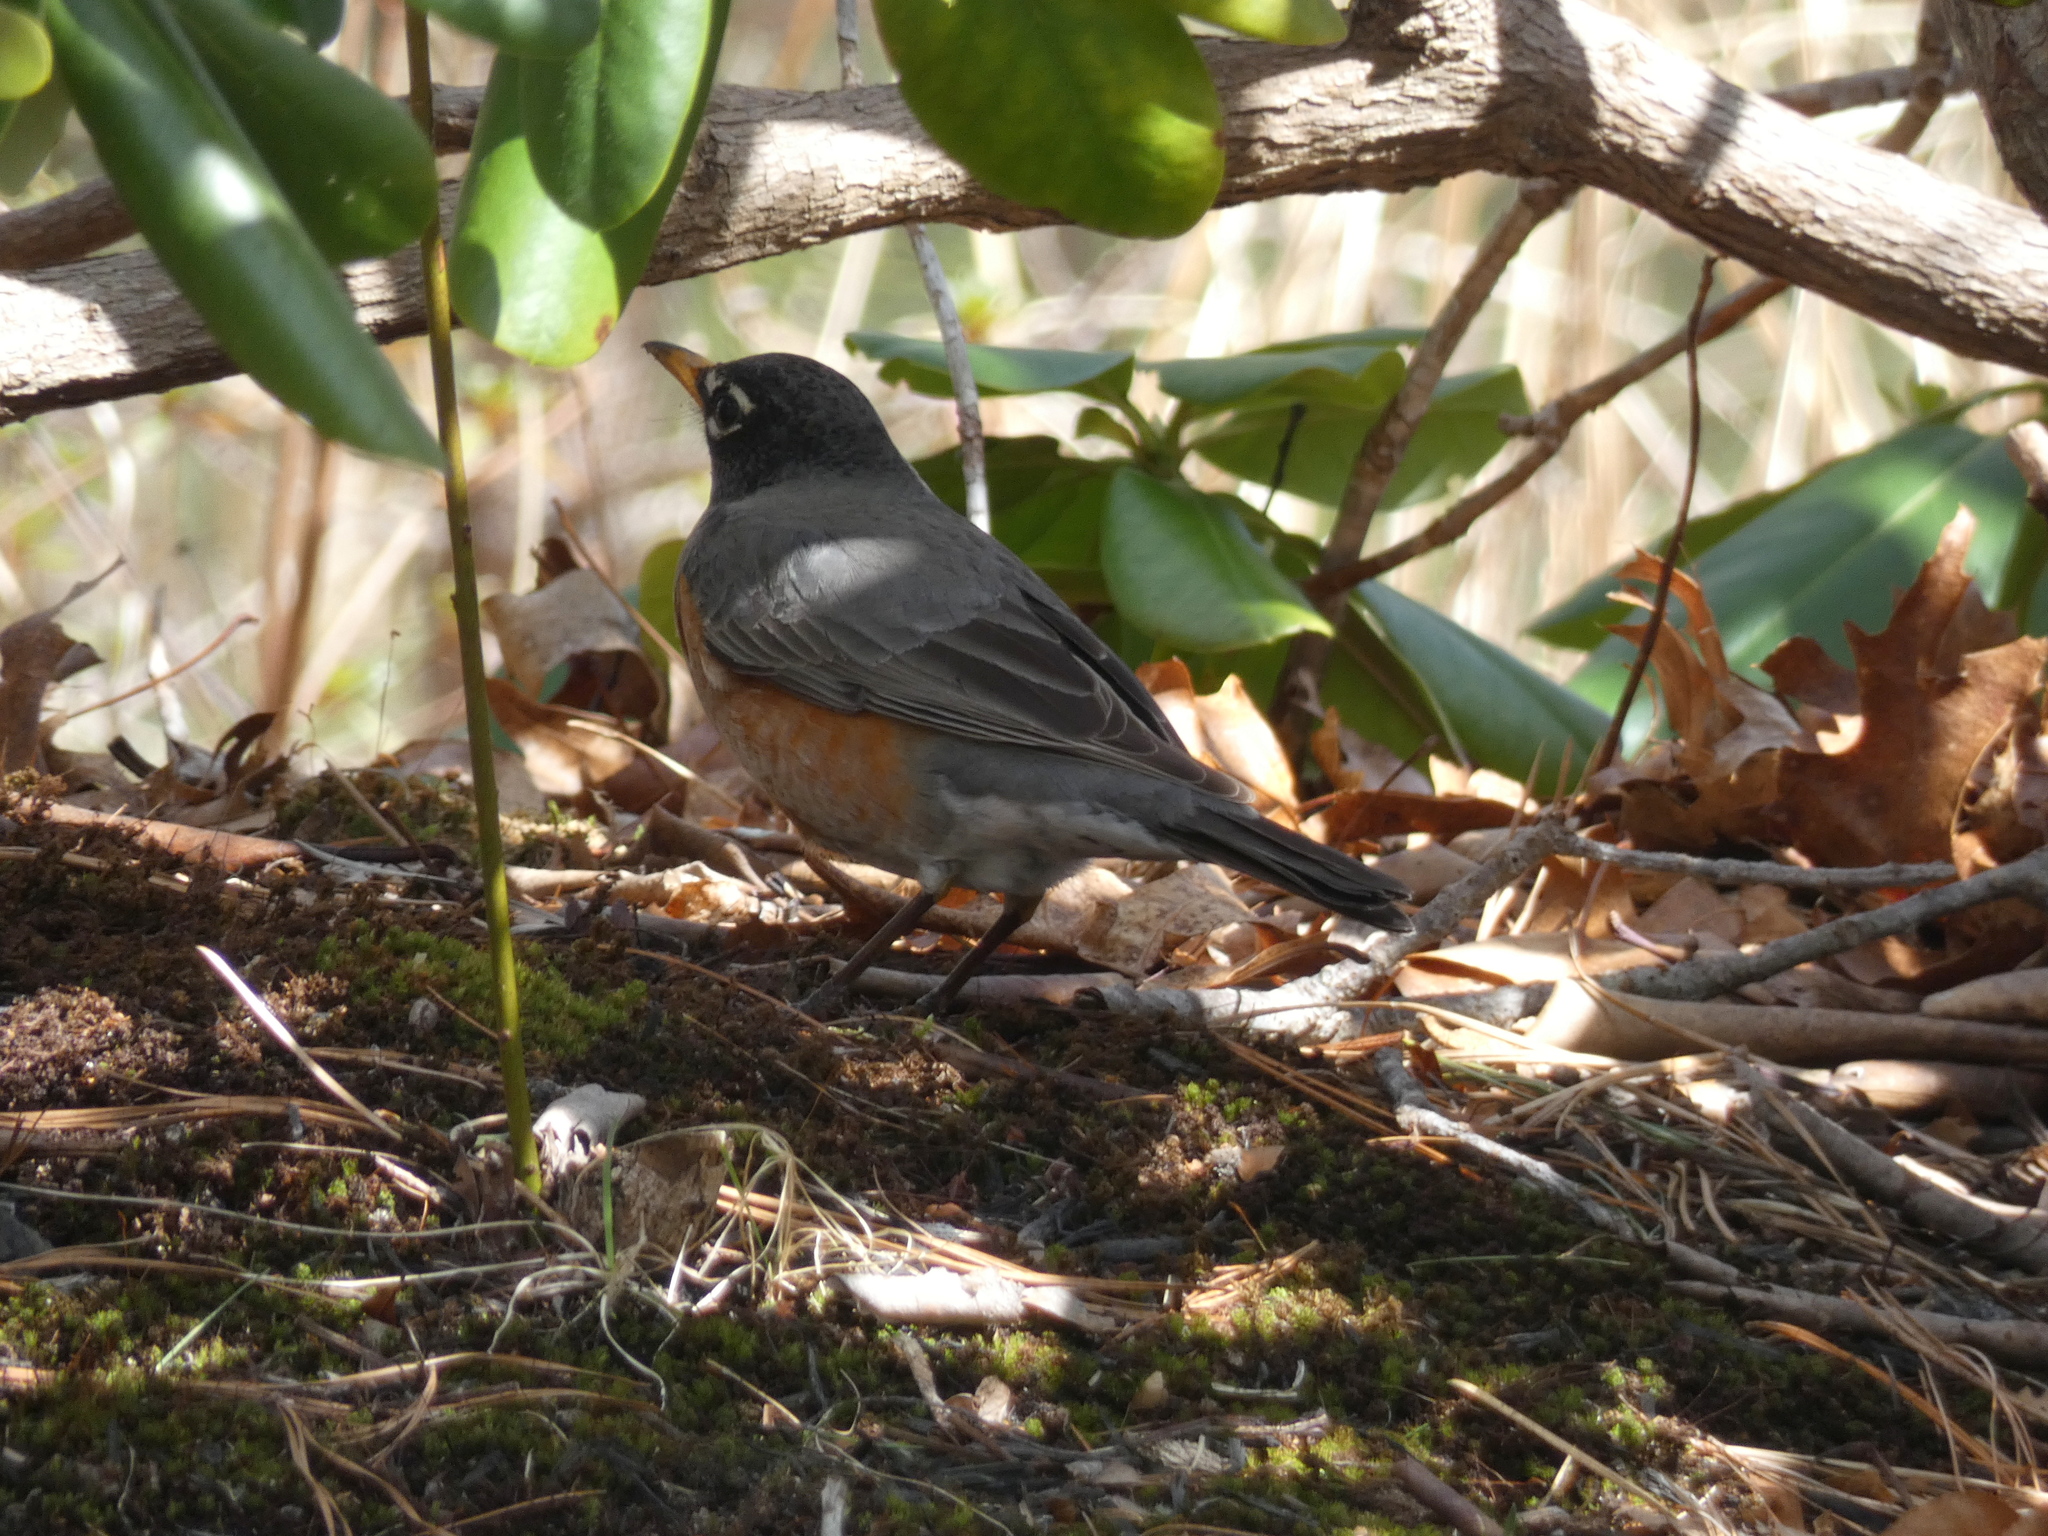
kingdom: Animalia
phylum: Chordata
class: Aves
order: Passeriformes
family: Turdidae
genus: Turdus
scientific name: Turdus migratorius
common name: American robin
